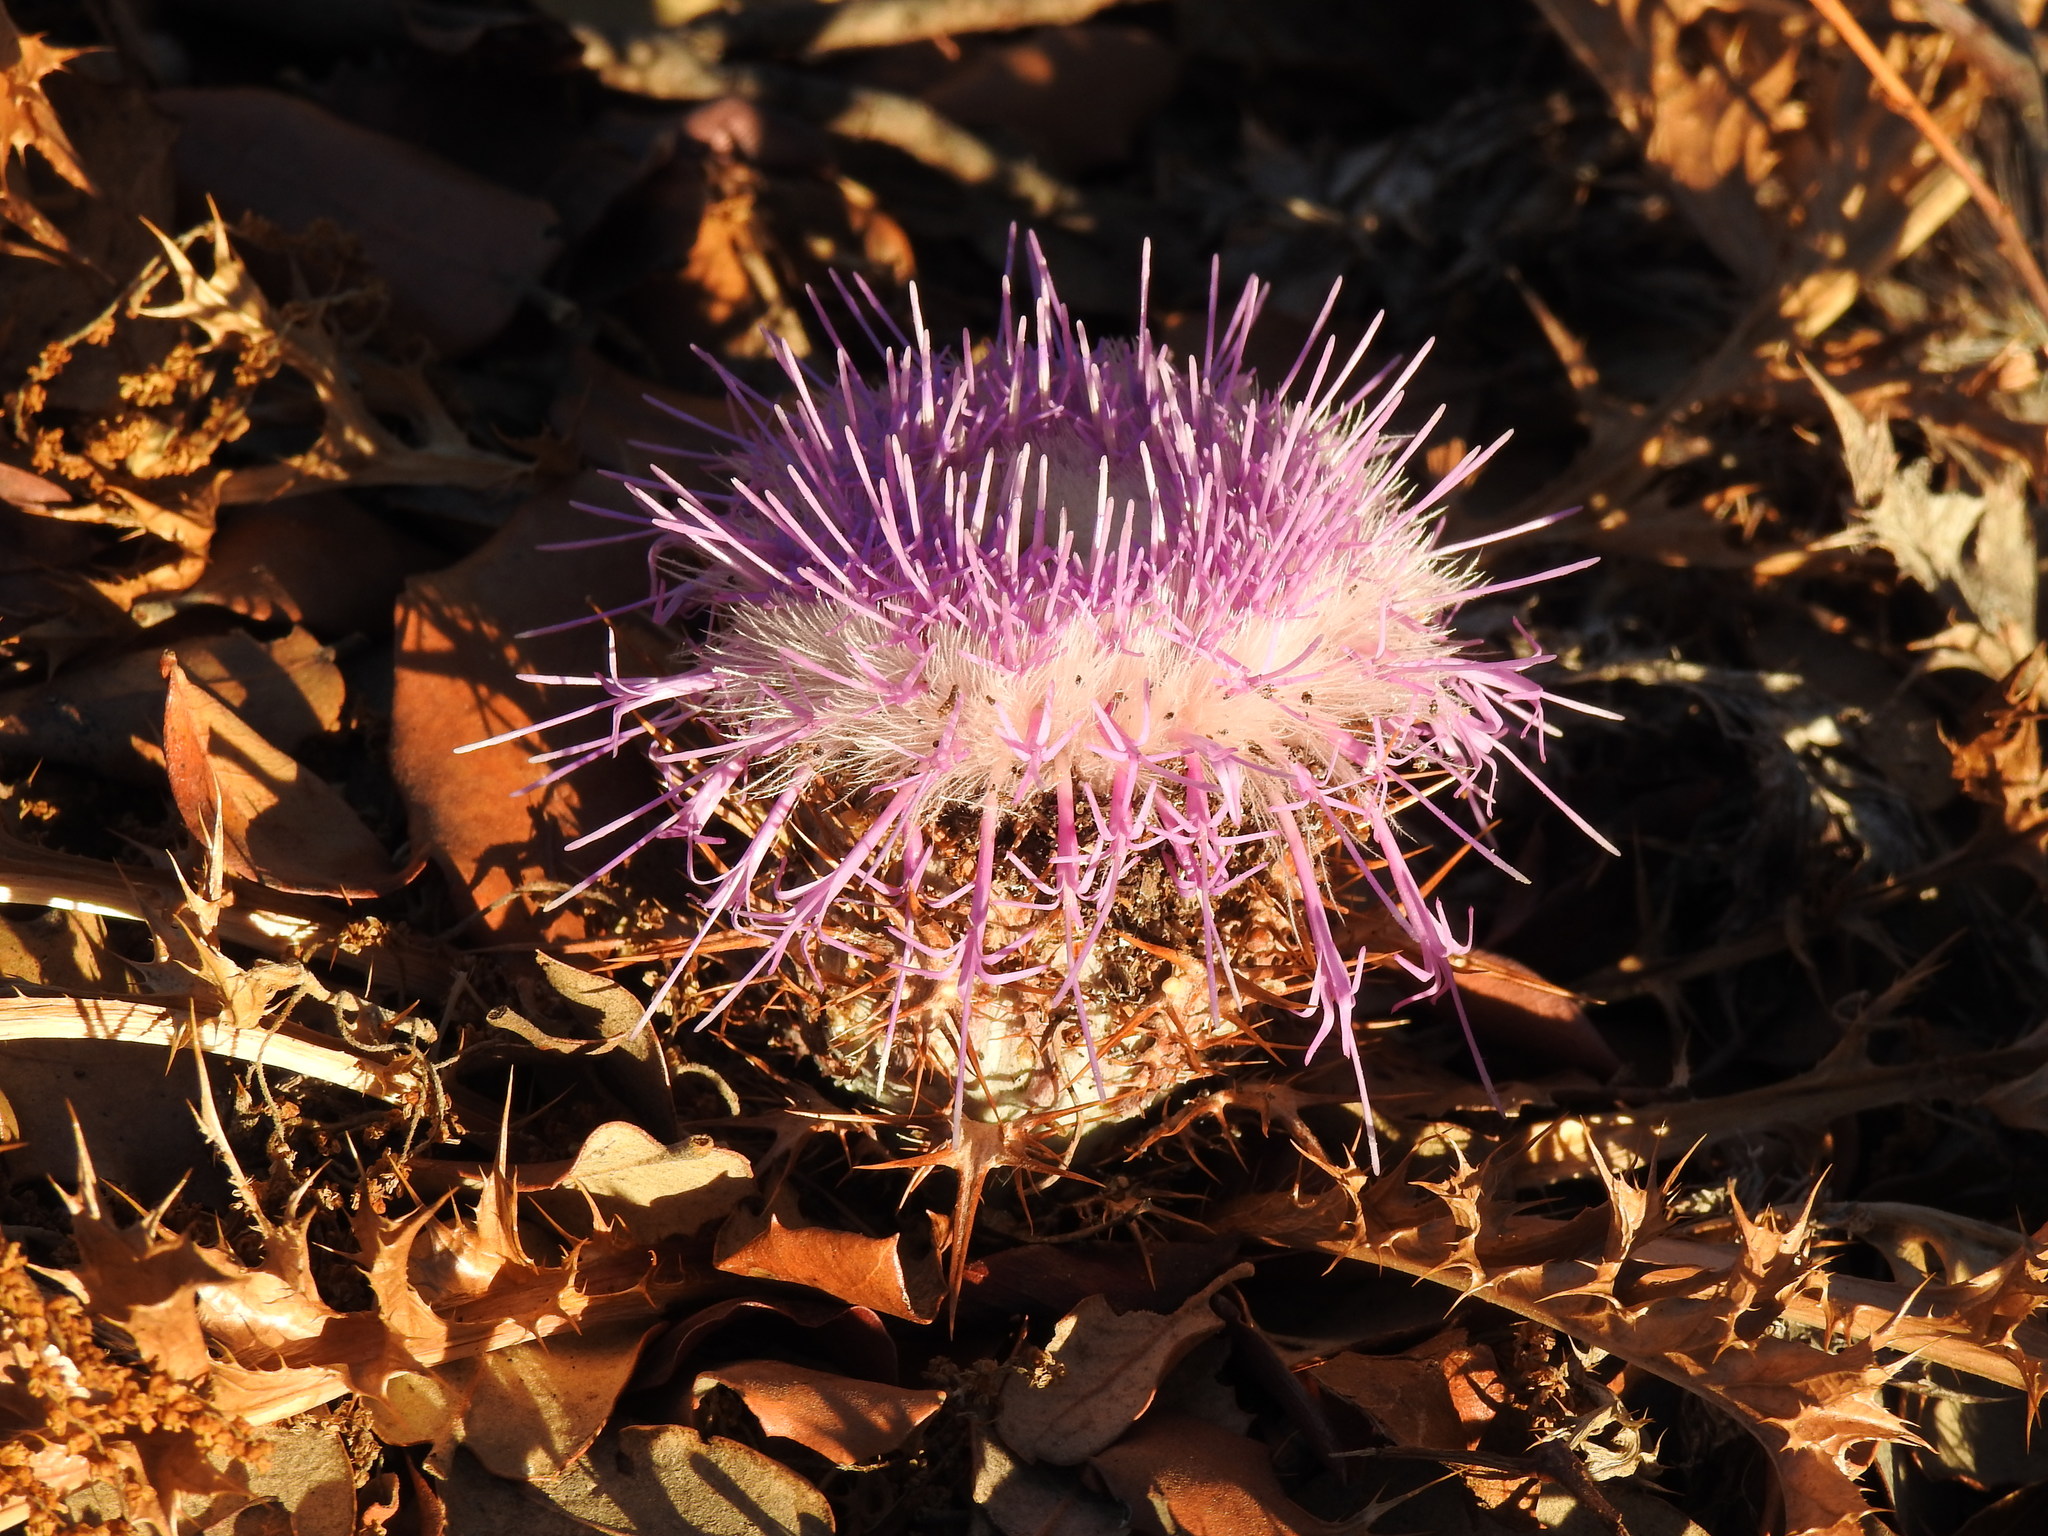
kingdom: Plantae
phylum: Tracheophyta
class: Magnoliopsida
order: Asterales
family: Asteraceae
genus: Chamaeleon
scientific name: Chamaeleon gummifer
